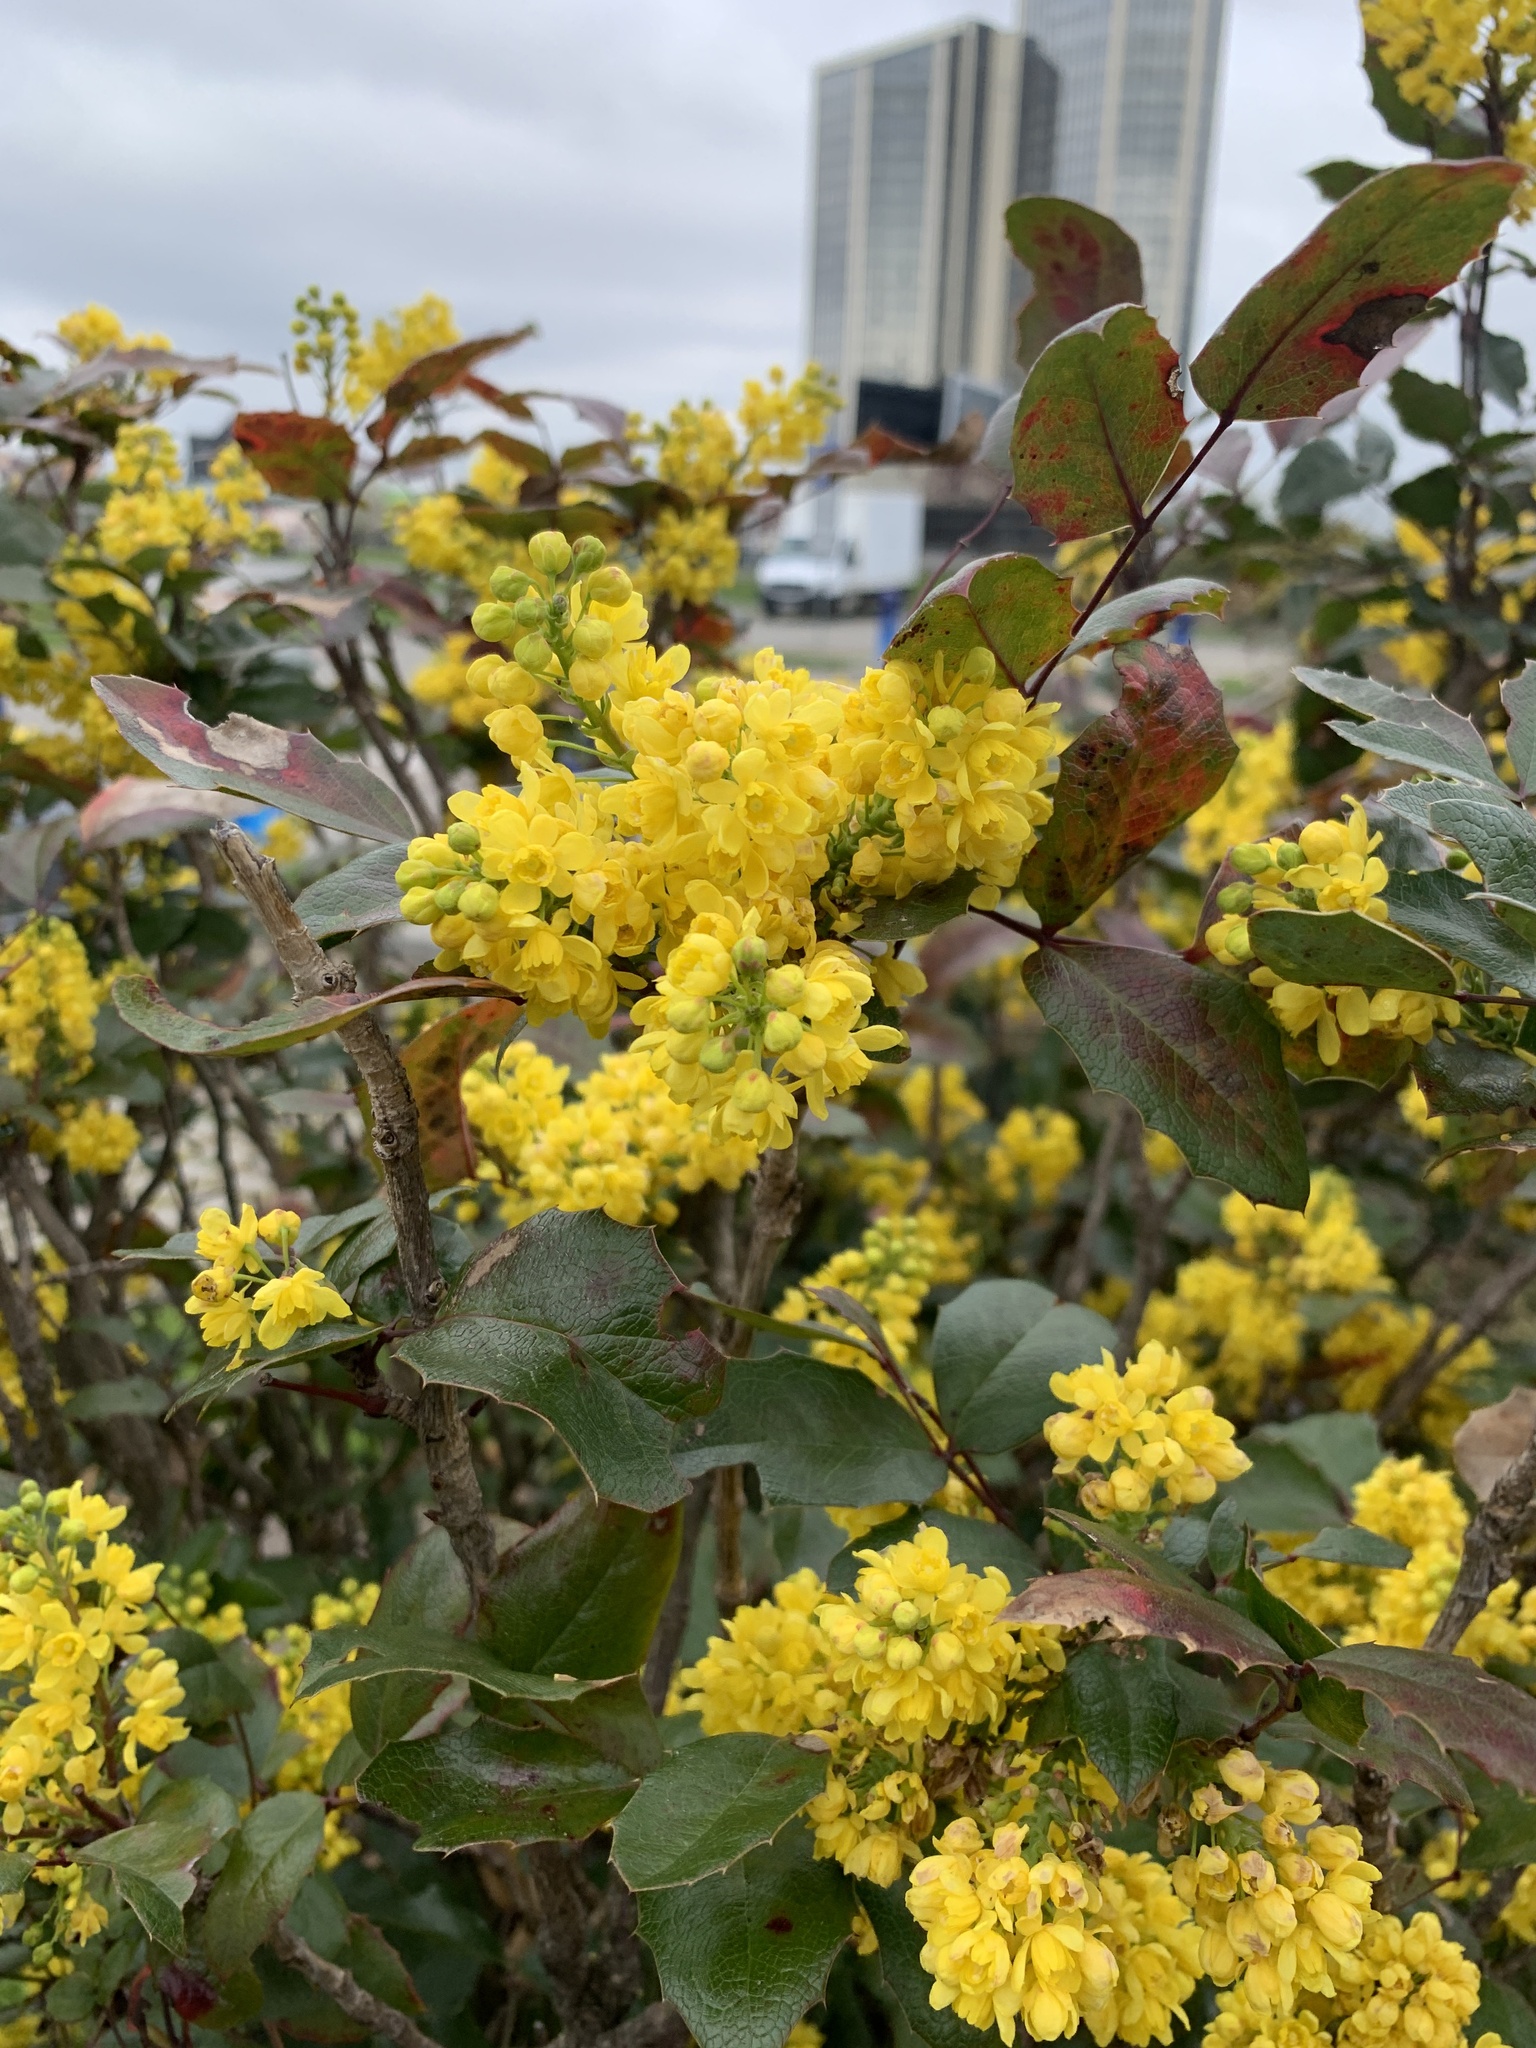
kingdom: Plantae
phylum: Tracheophyta
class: Magnoliopsida
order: Ranunculales
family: Berberidaceae
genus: Mahonia
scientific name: Mahonia aquifolium
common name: Oregon-grape
